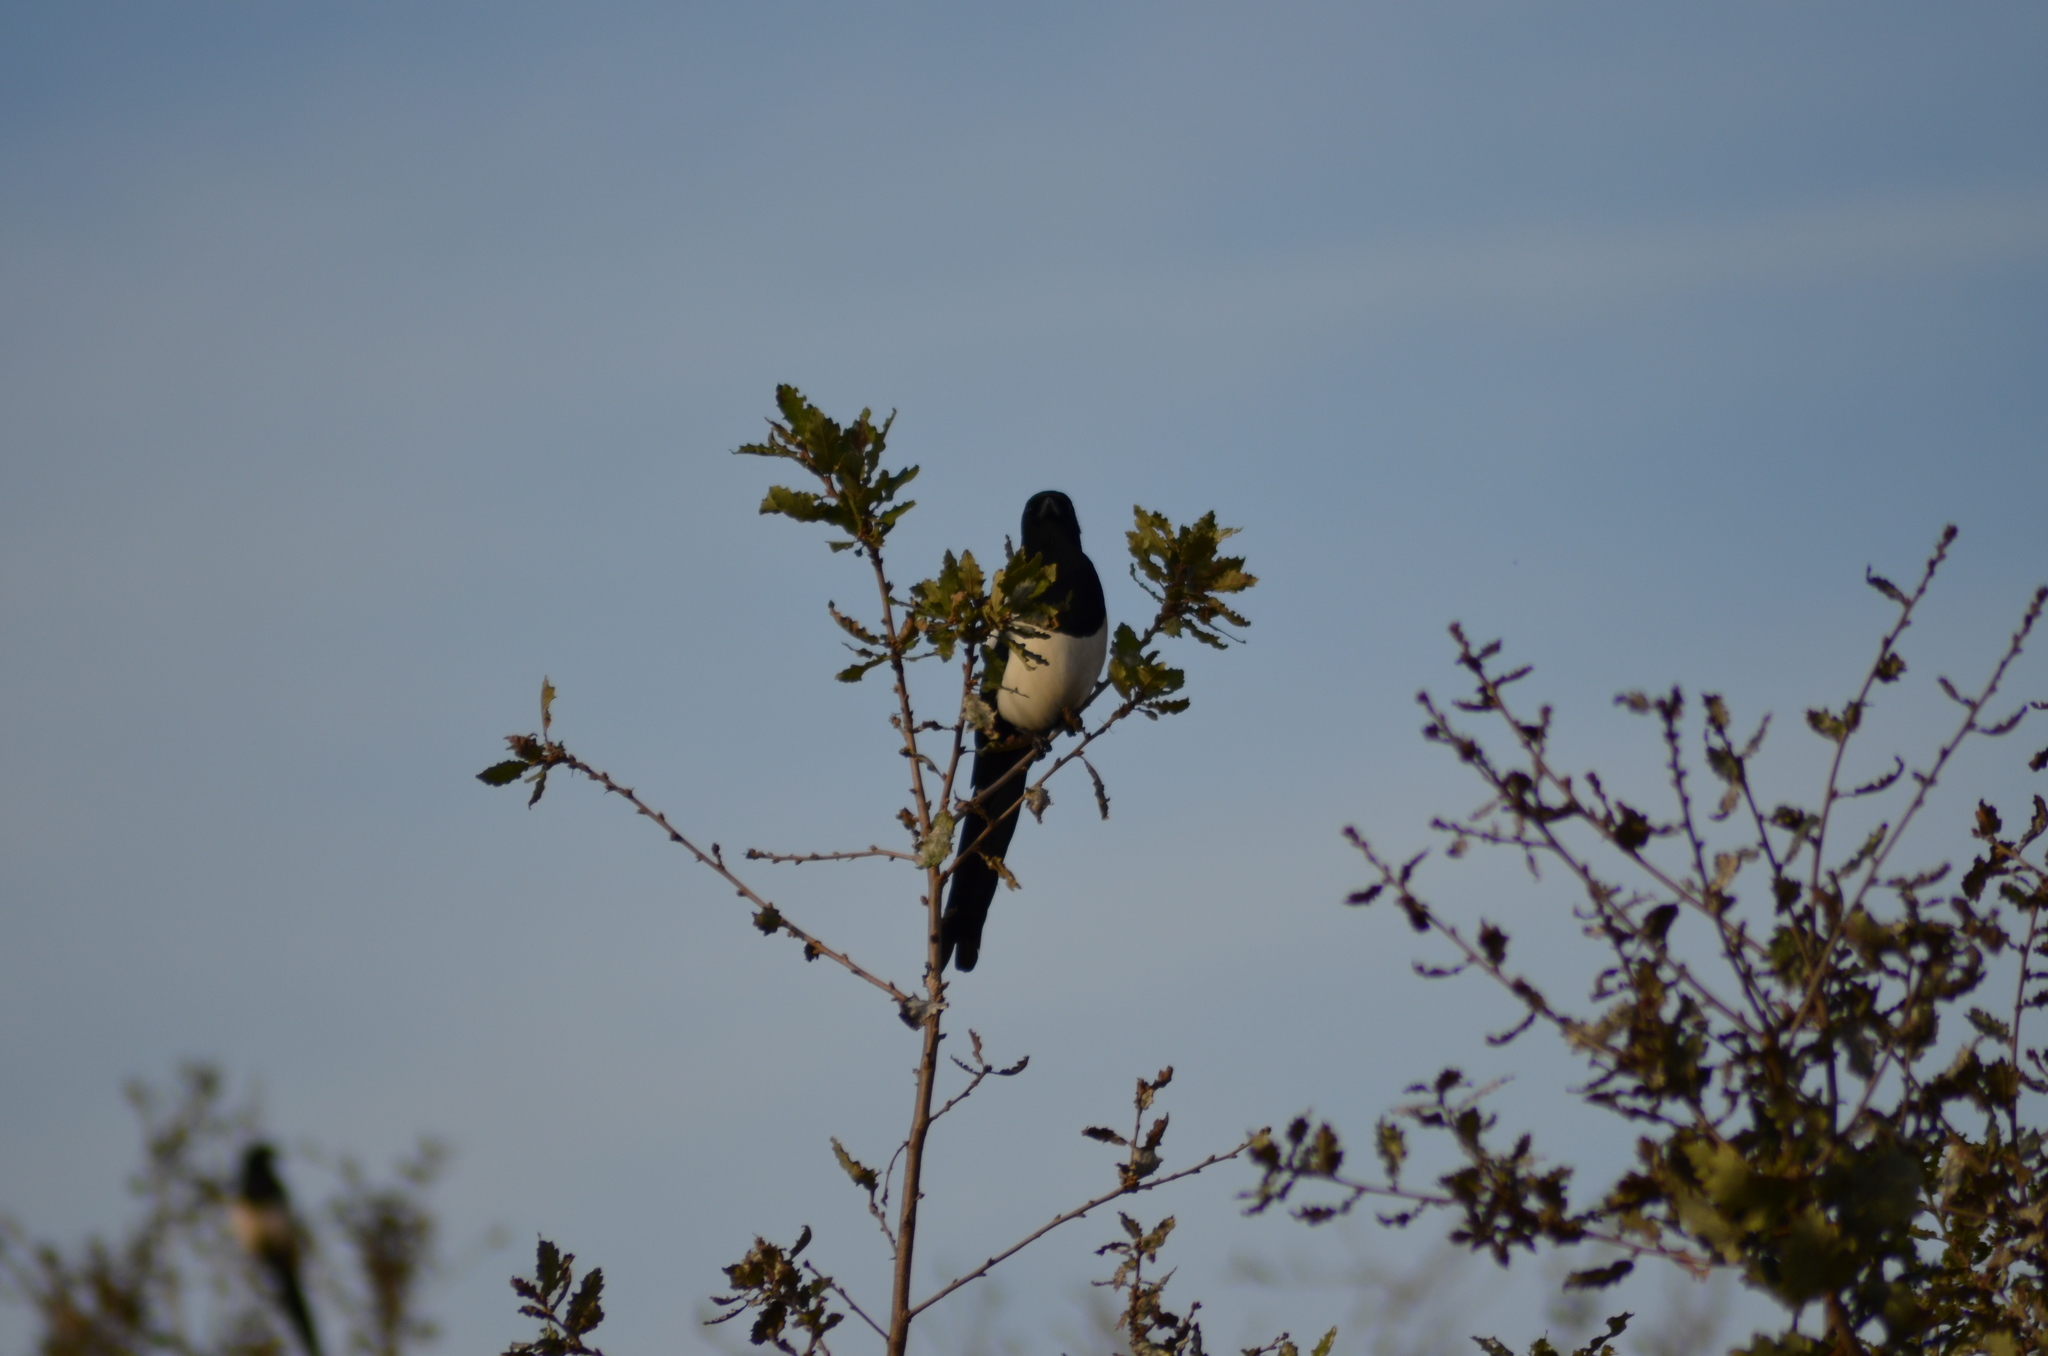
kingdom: Animalia
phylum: Chordata
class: Aves
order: Passeriformes
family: Corvidae
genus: Pica
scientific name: Pica pica
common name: Eurasian magpie
